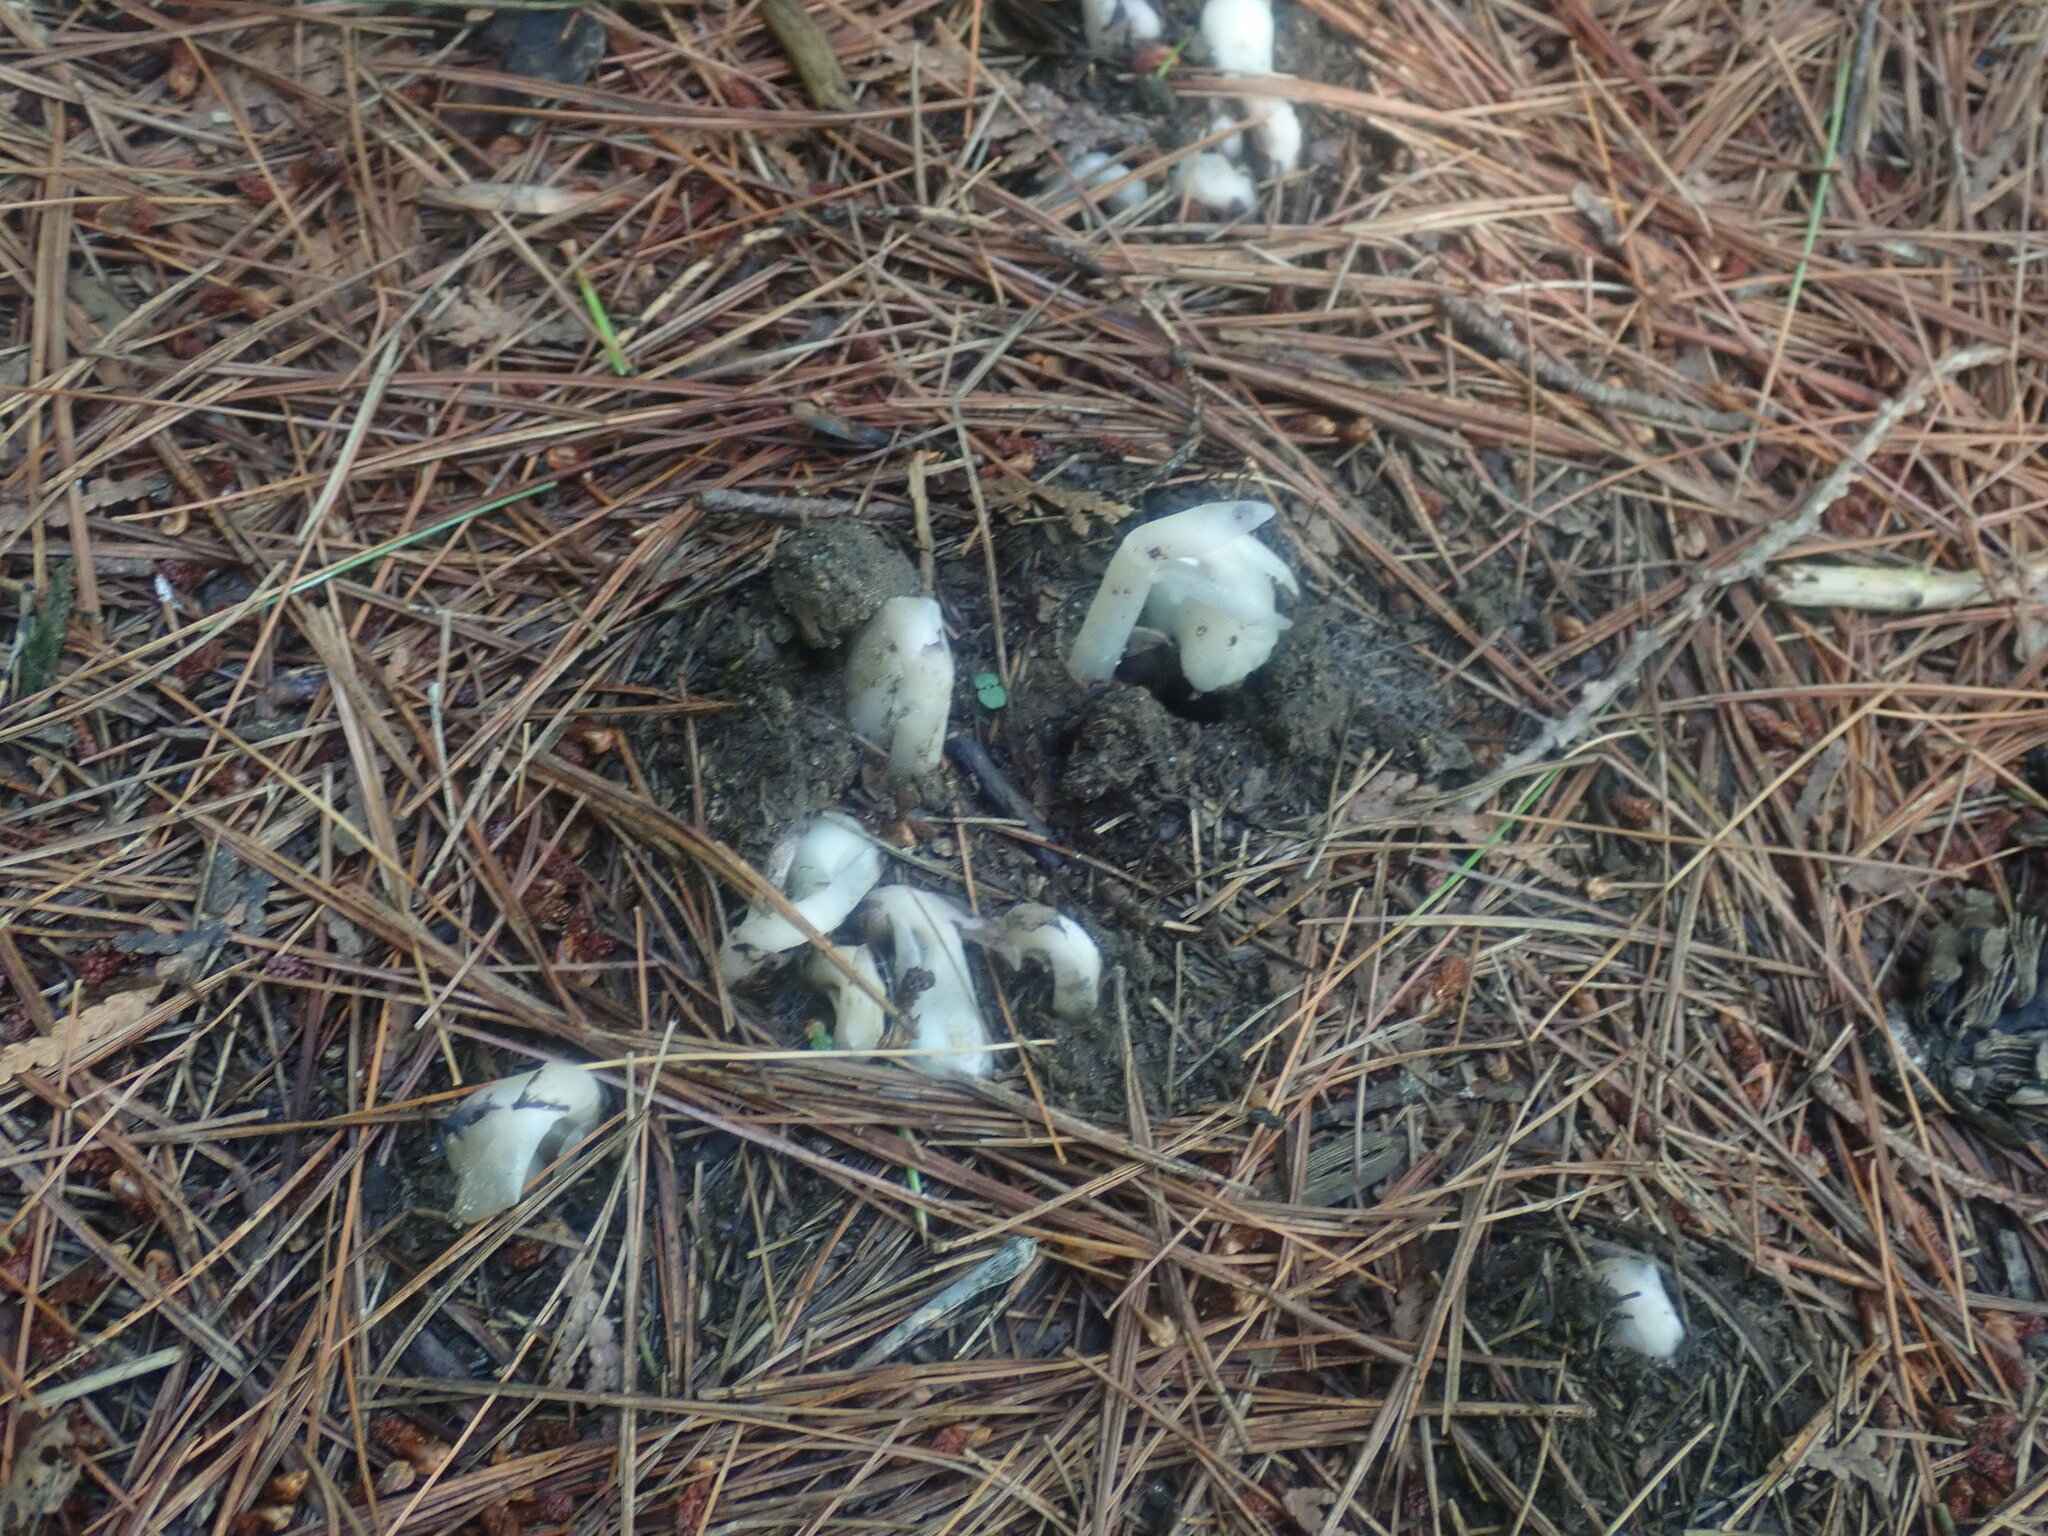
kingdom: Plantae
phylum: Tracheophyta
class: Magnoliopsida
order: Ericales
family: Ericaceae
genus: Monotropa
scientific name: Monotropa uniflora
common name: Convulsion root
